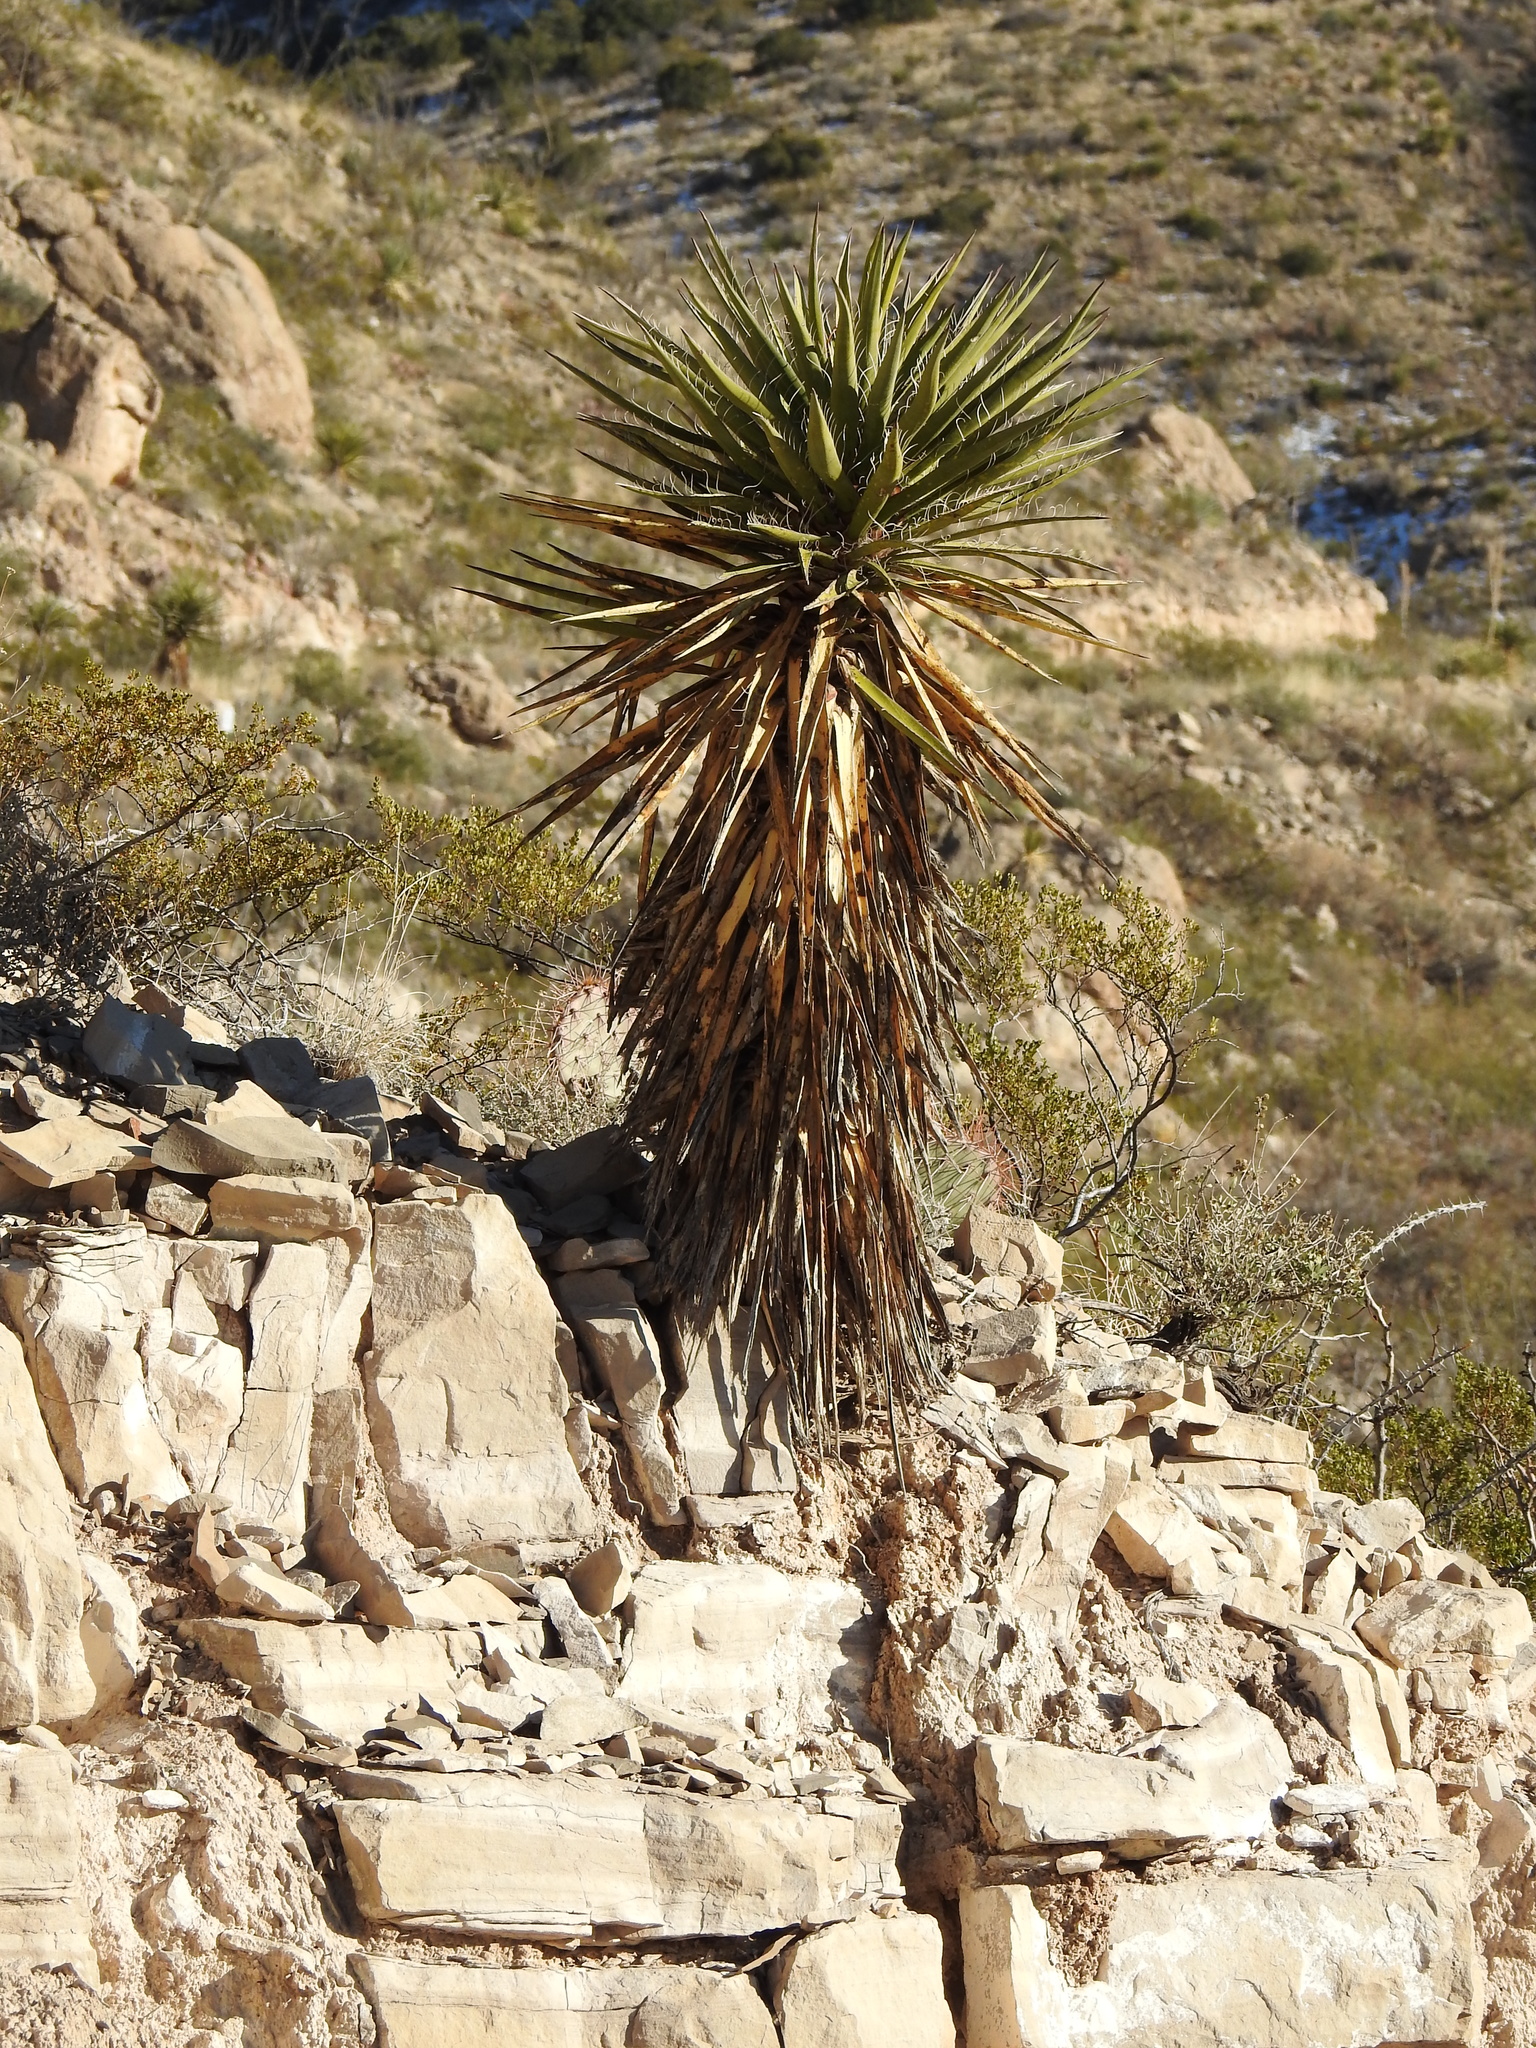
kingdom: Plantae
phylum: Tracheophyta
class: Liliopsida
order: Asparagales
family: Asparagaceae
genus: Yucca
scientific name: Yucca treculiana
